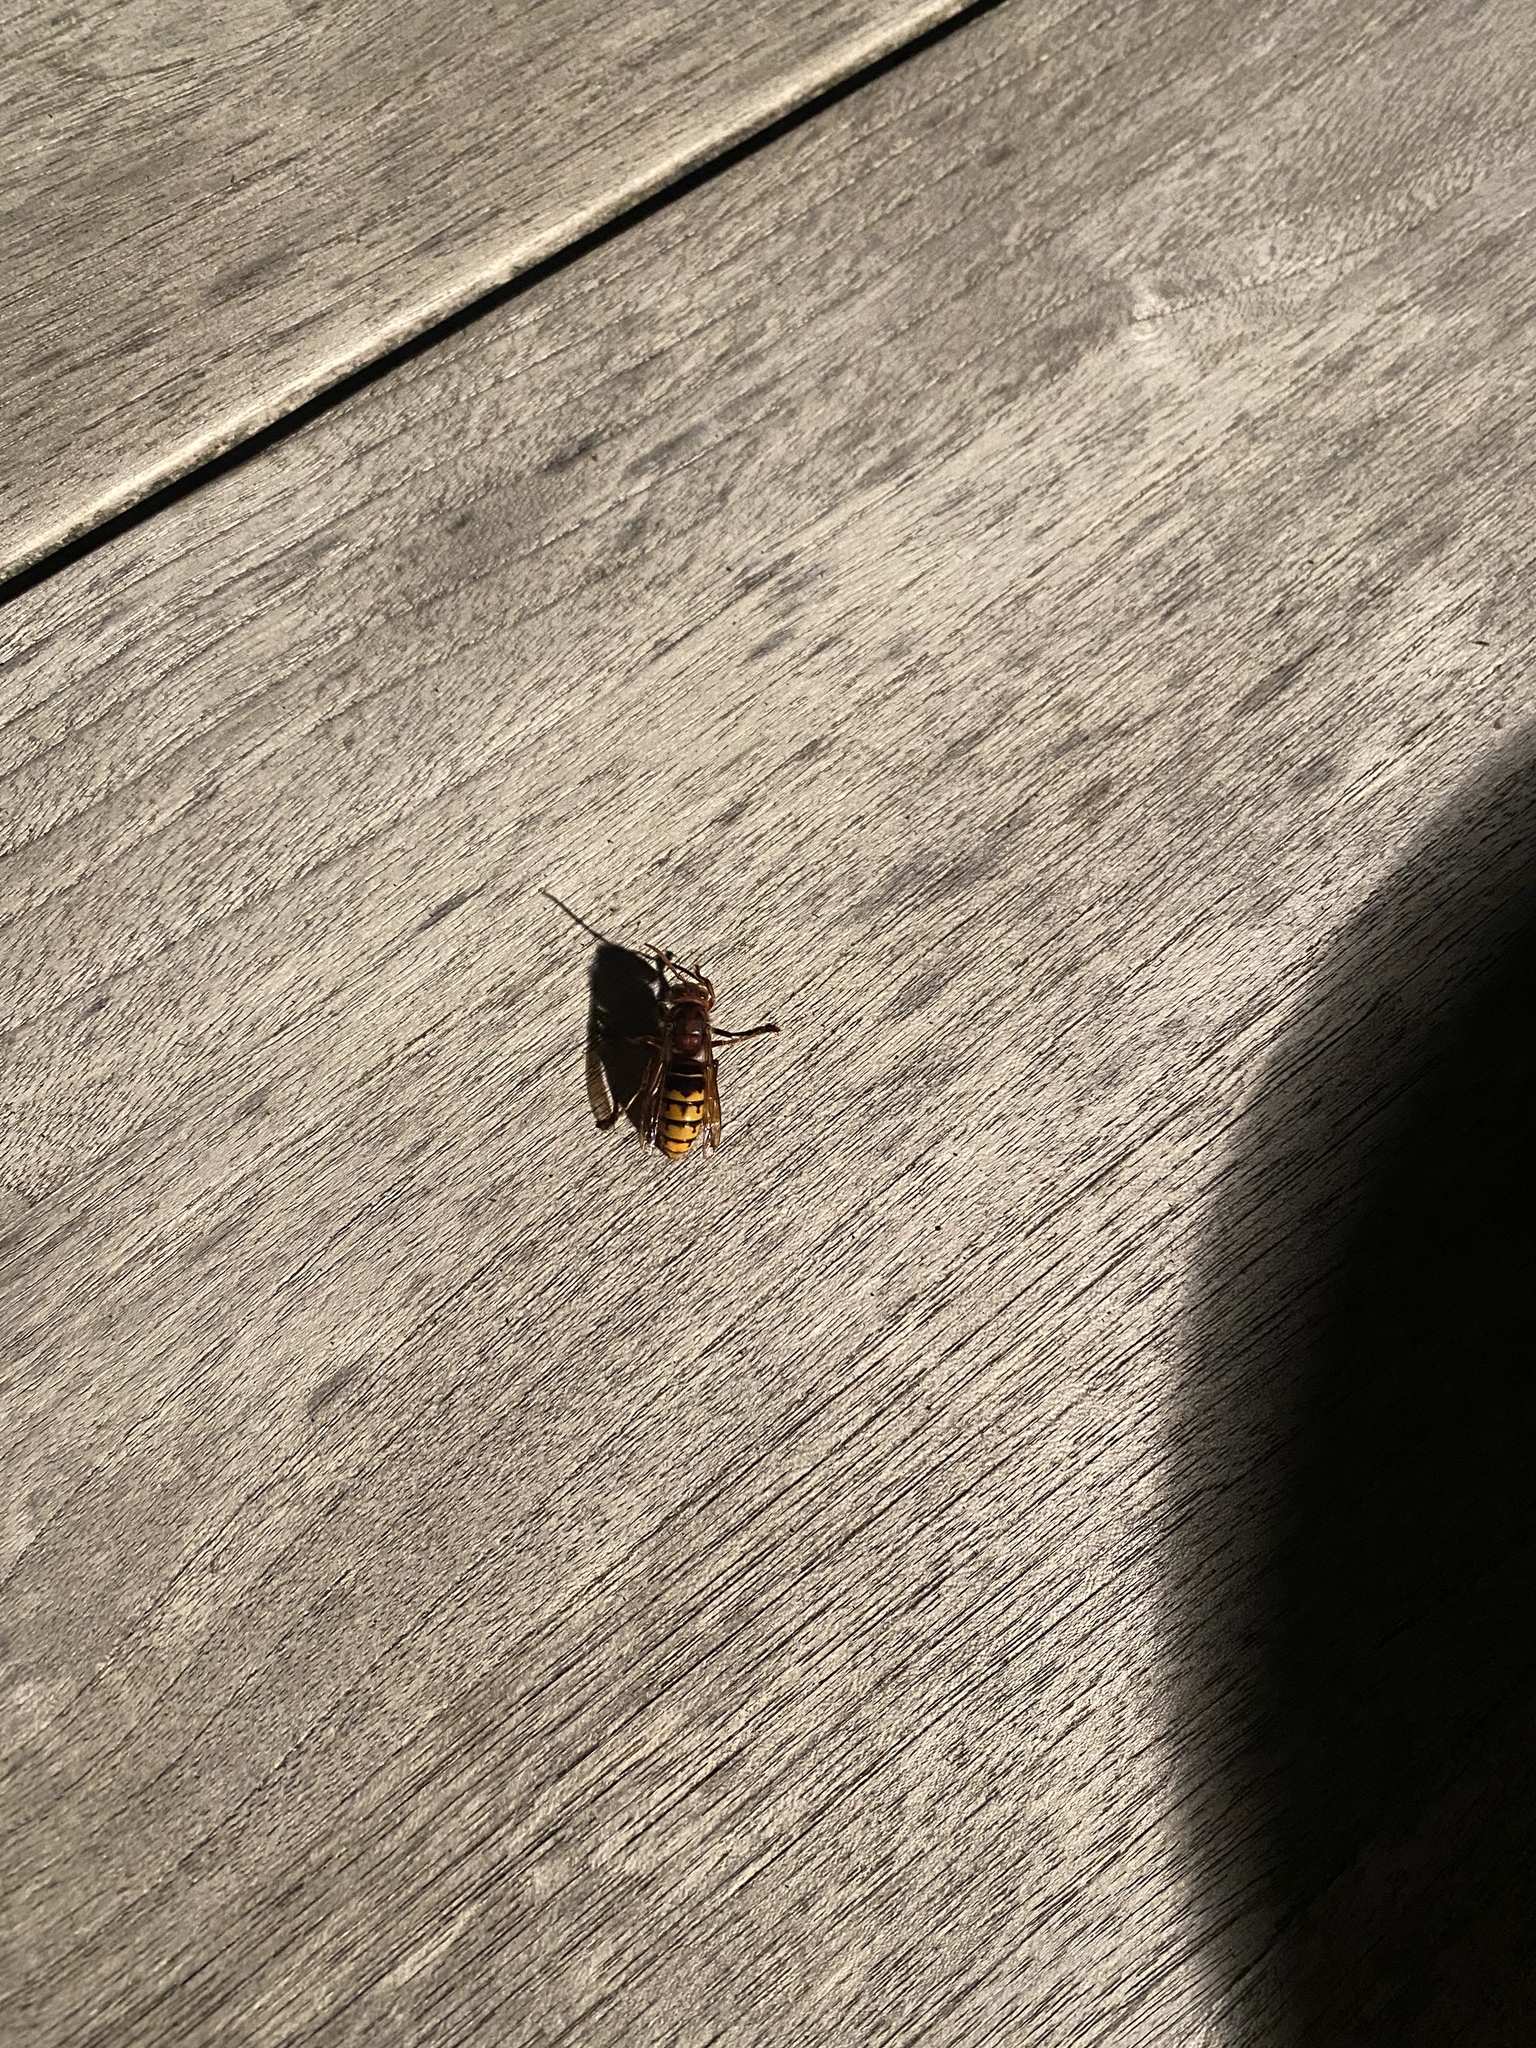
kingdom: Animalia
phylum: Arthropoda
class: Insecta
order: Hymenoptera
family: Vespidae
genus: Vespa
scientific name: Vespa crabro
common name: Hornet
